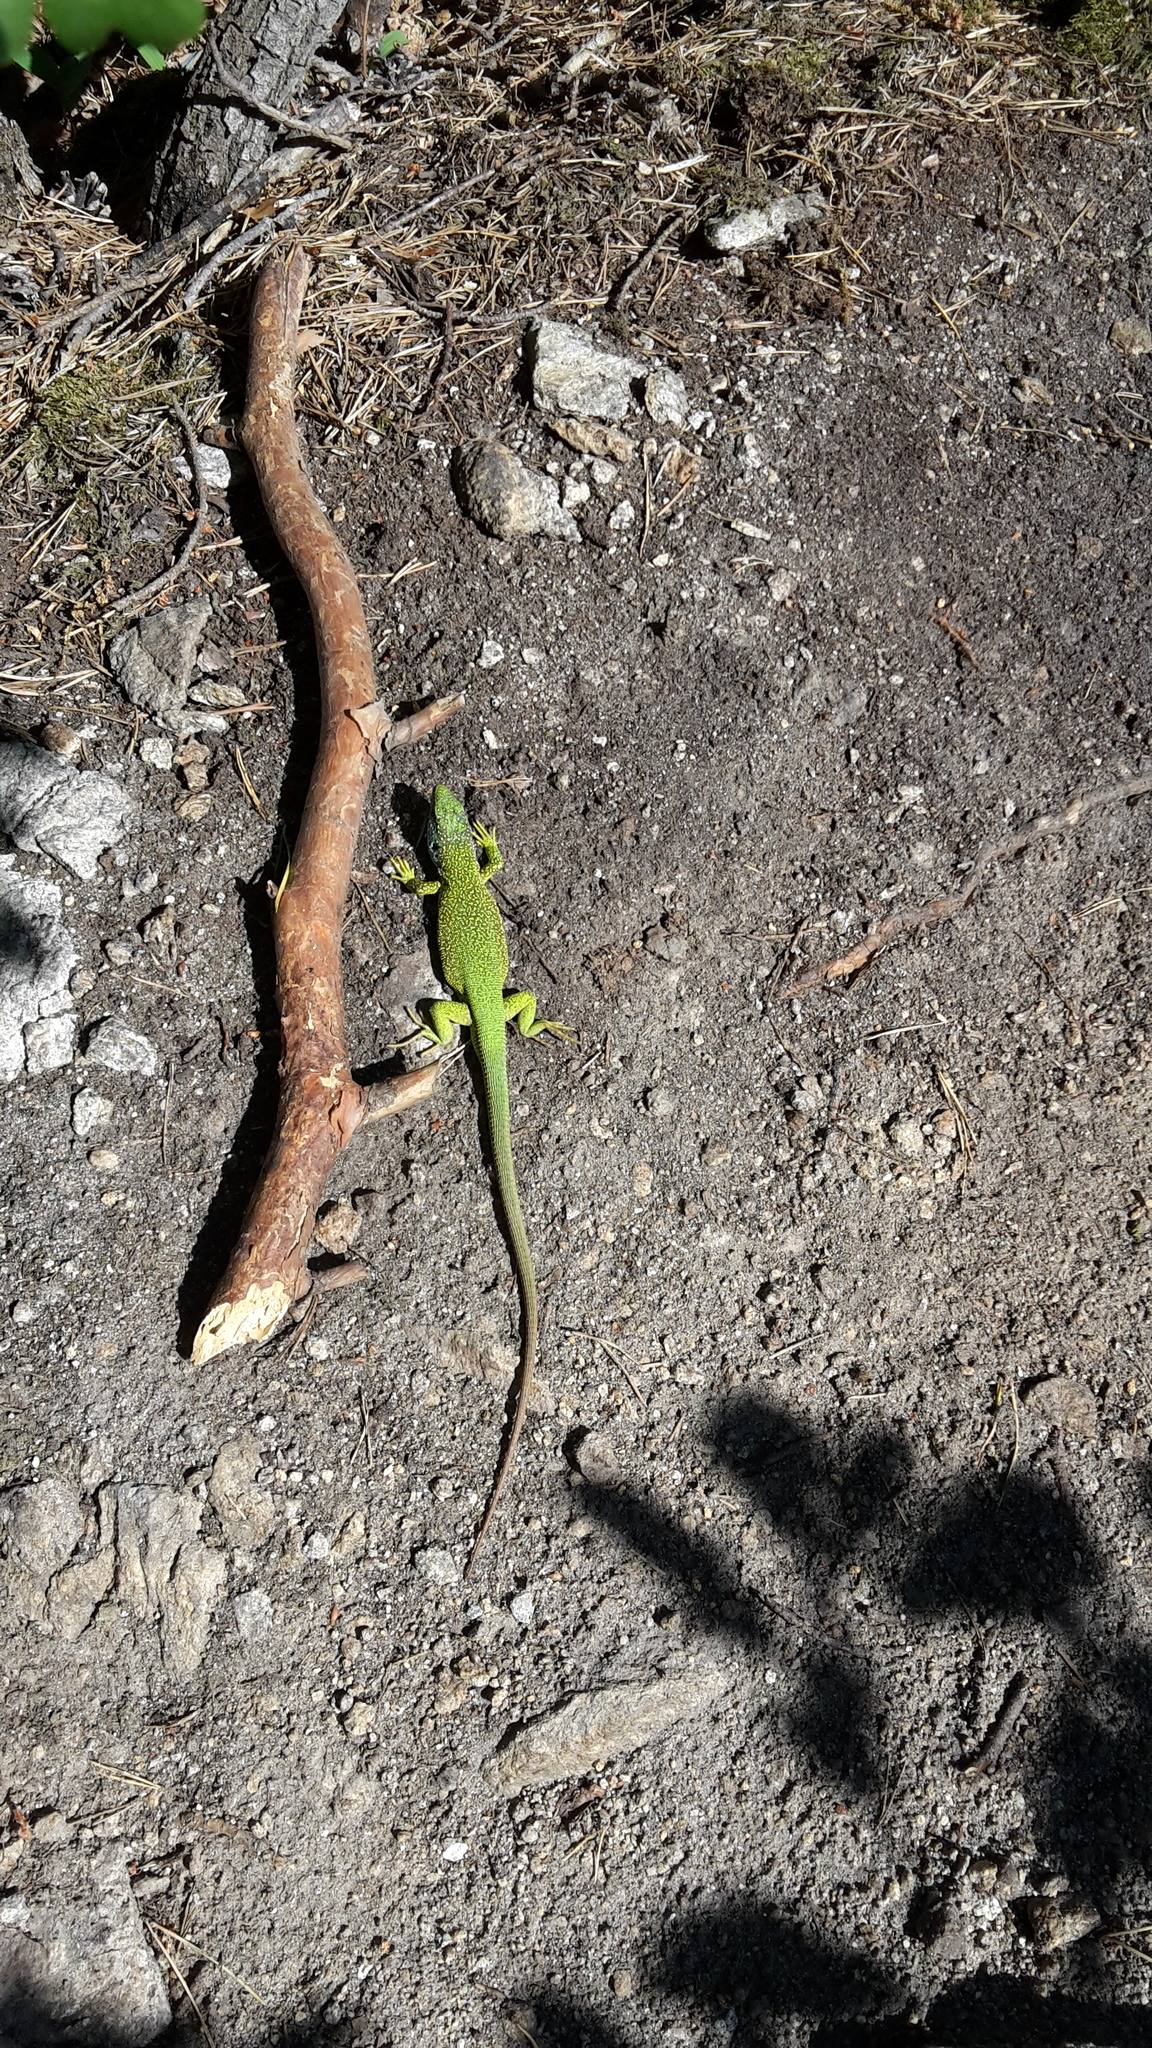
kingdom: Animalia
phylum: Chordata
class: Squamata
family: Lacertidae
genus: Lacerta
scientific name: Lacerta viridis
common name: European green lizard
